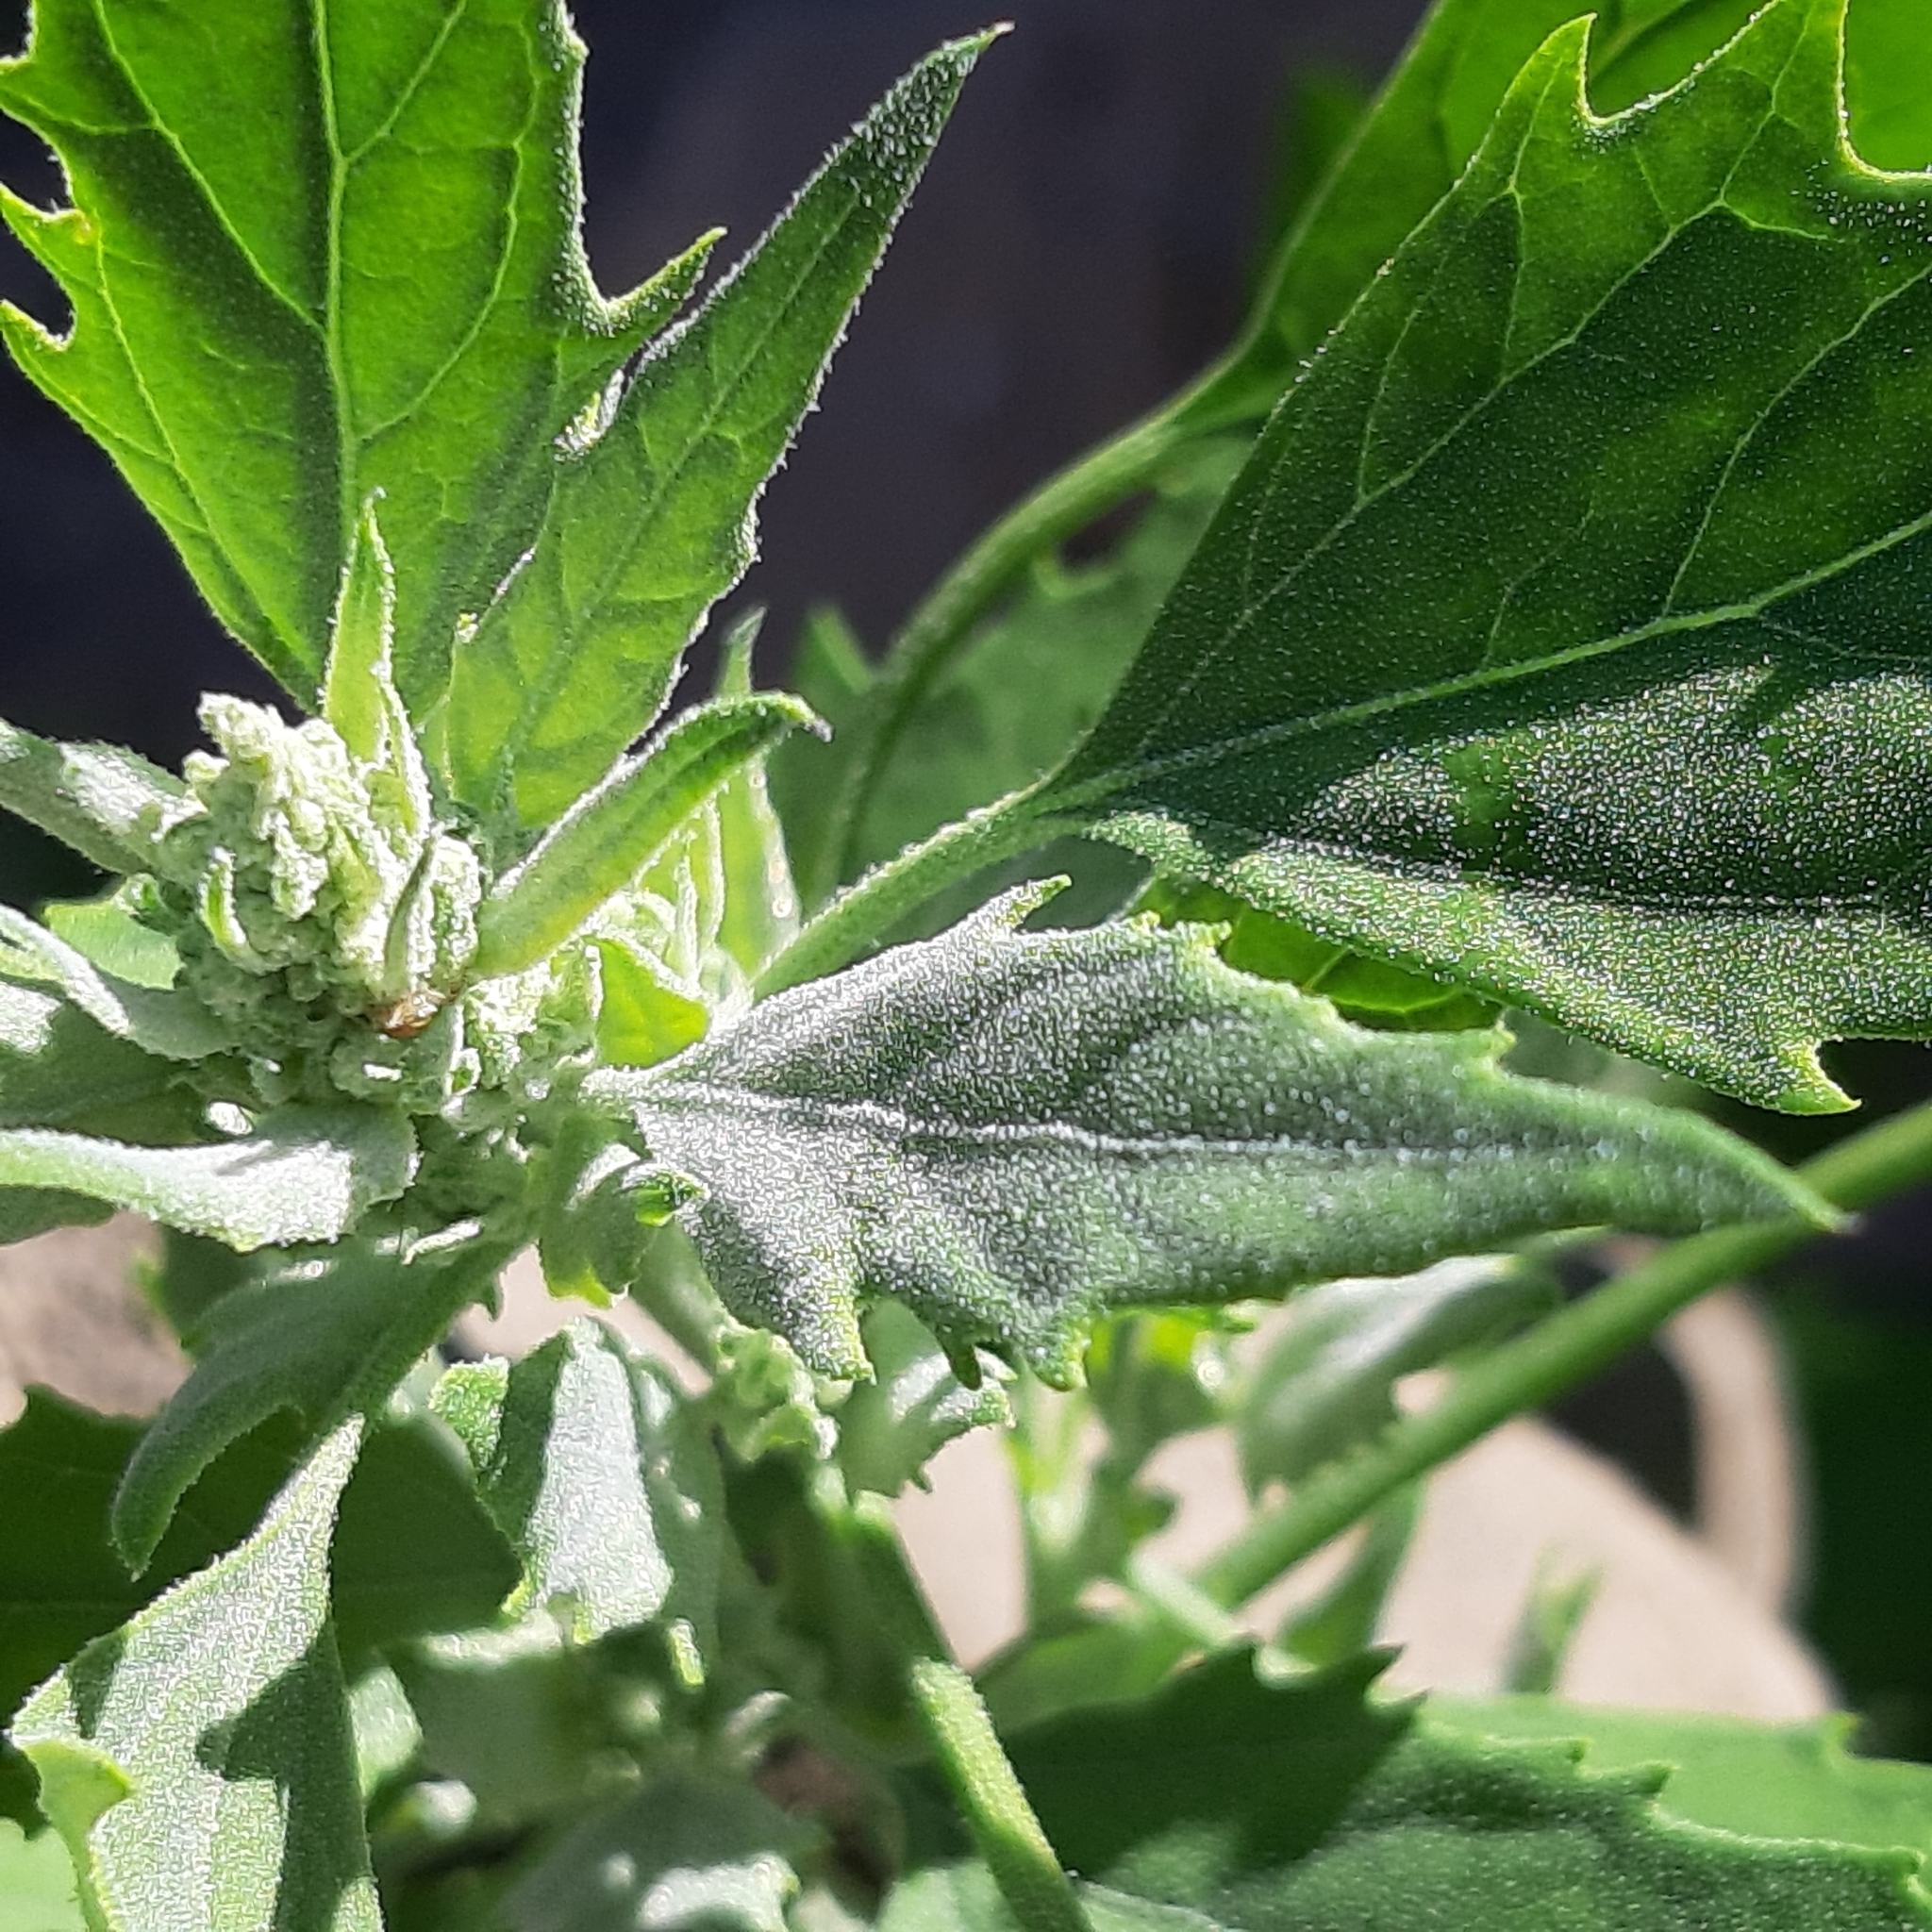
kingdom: Plantae
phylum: Tracheophyta
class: Magnoliopsida
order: Caryophyllales
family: Amaranthaceae
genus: Chenopodium
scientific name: Chenopodium album
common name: Fat-hen
